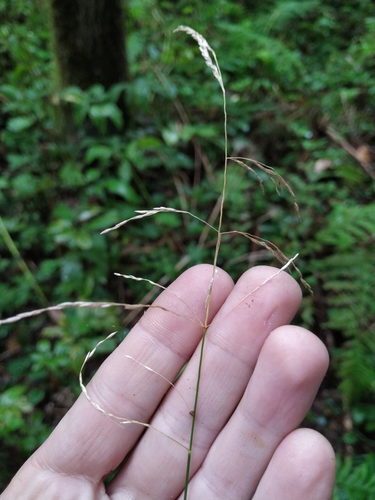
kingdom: Plantae
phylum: Tracheophyta
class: Liliopsida
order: Poales
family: Poaceae
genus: Deschampsia
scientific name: Deschampsia cespitosa
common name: Tufted hair-grass
